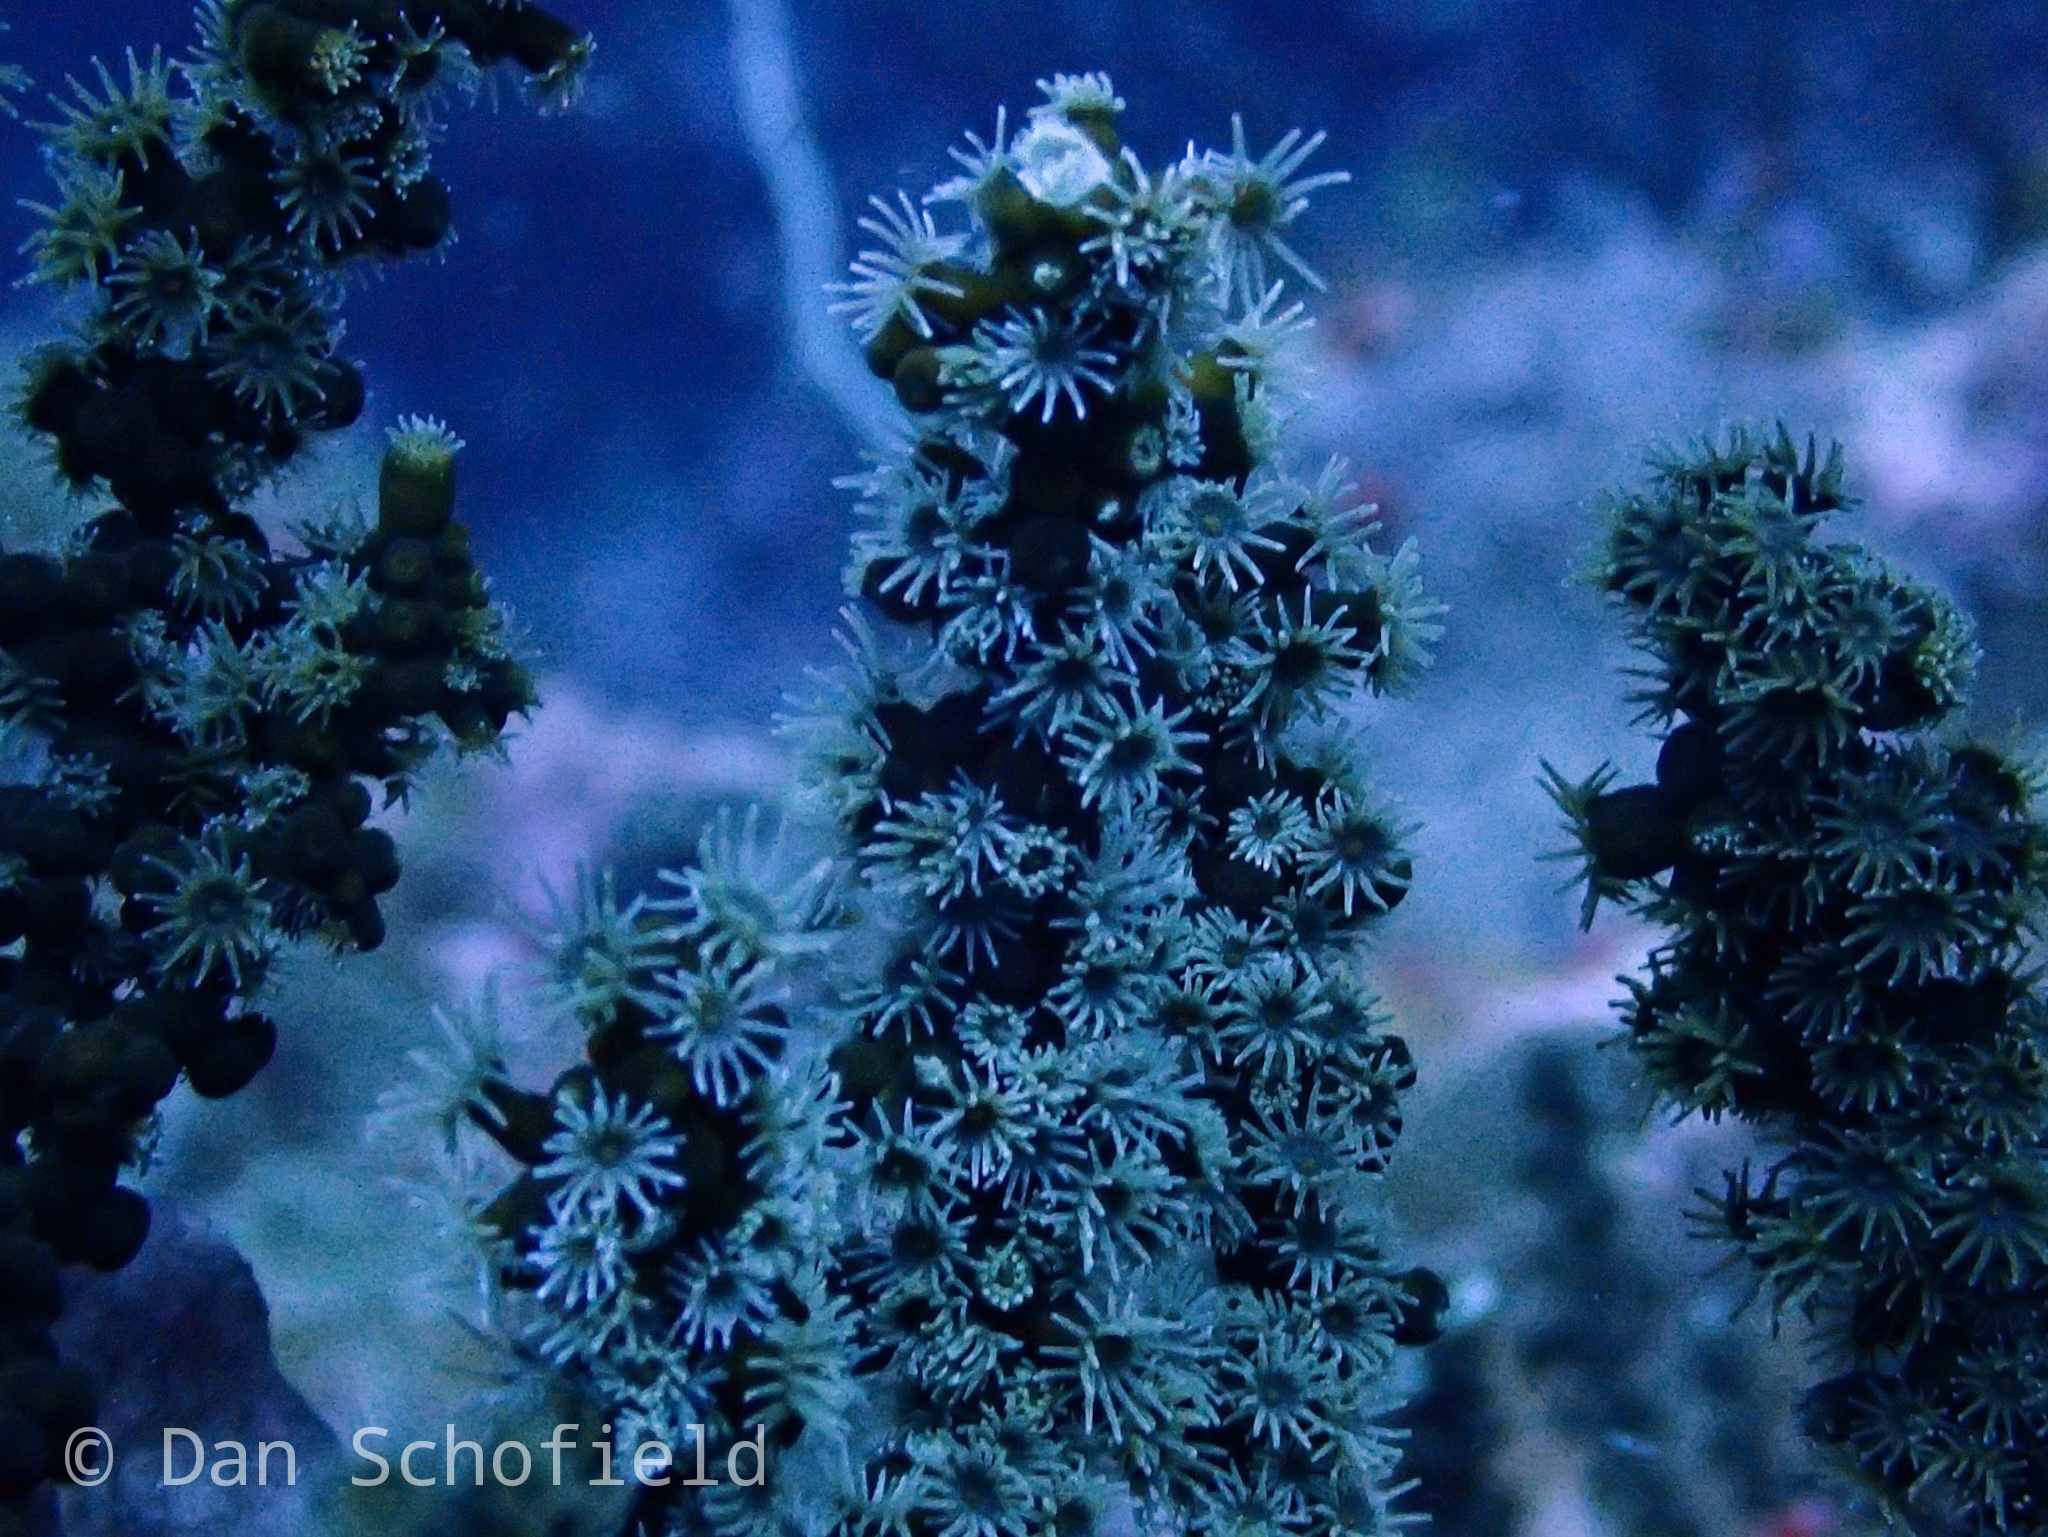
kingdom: Animalia
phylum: Cnidaria
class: Anthozoa
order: Zoantharia
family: Epizoanthidae
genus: Epizoanthus
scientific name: Epizoanthus illoricatus
